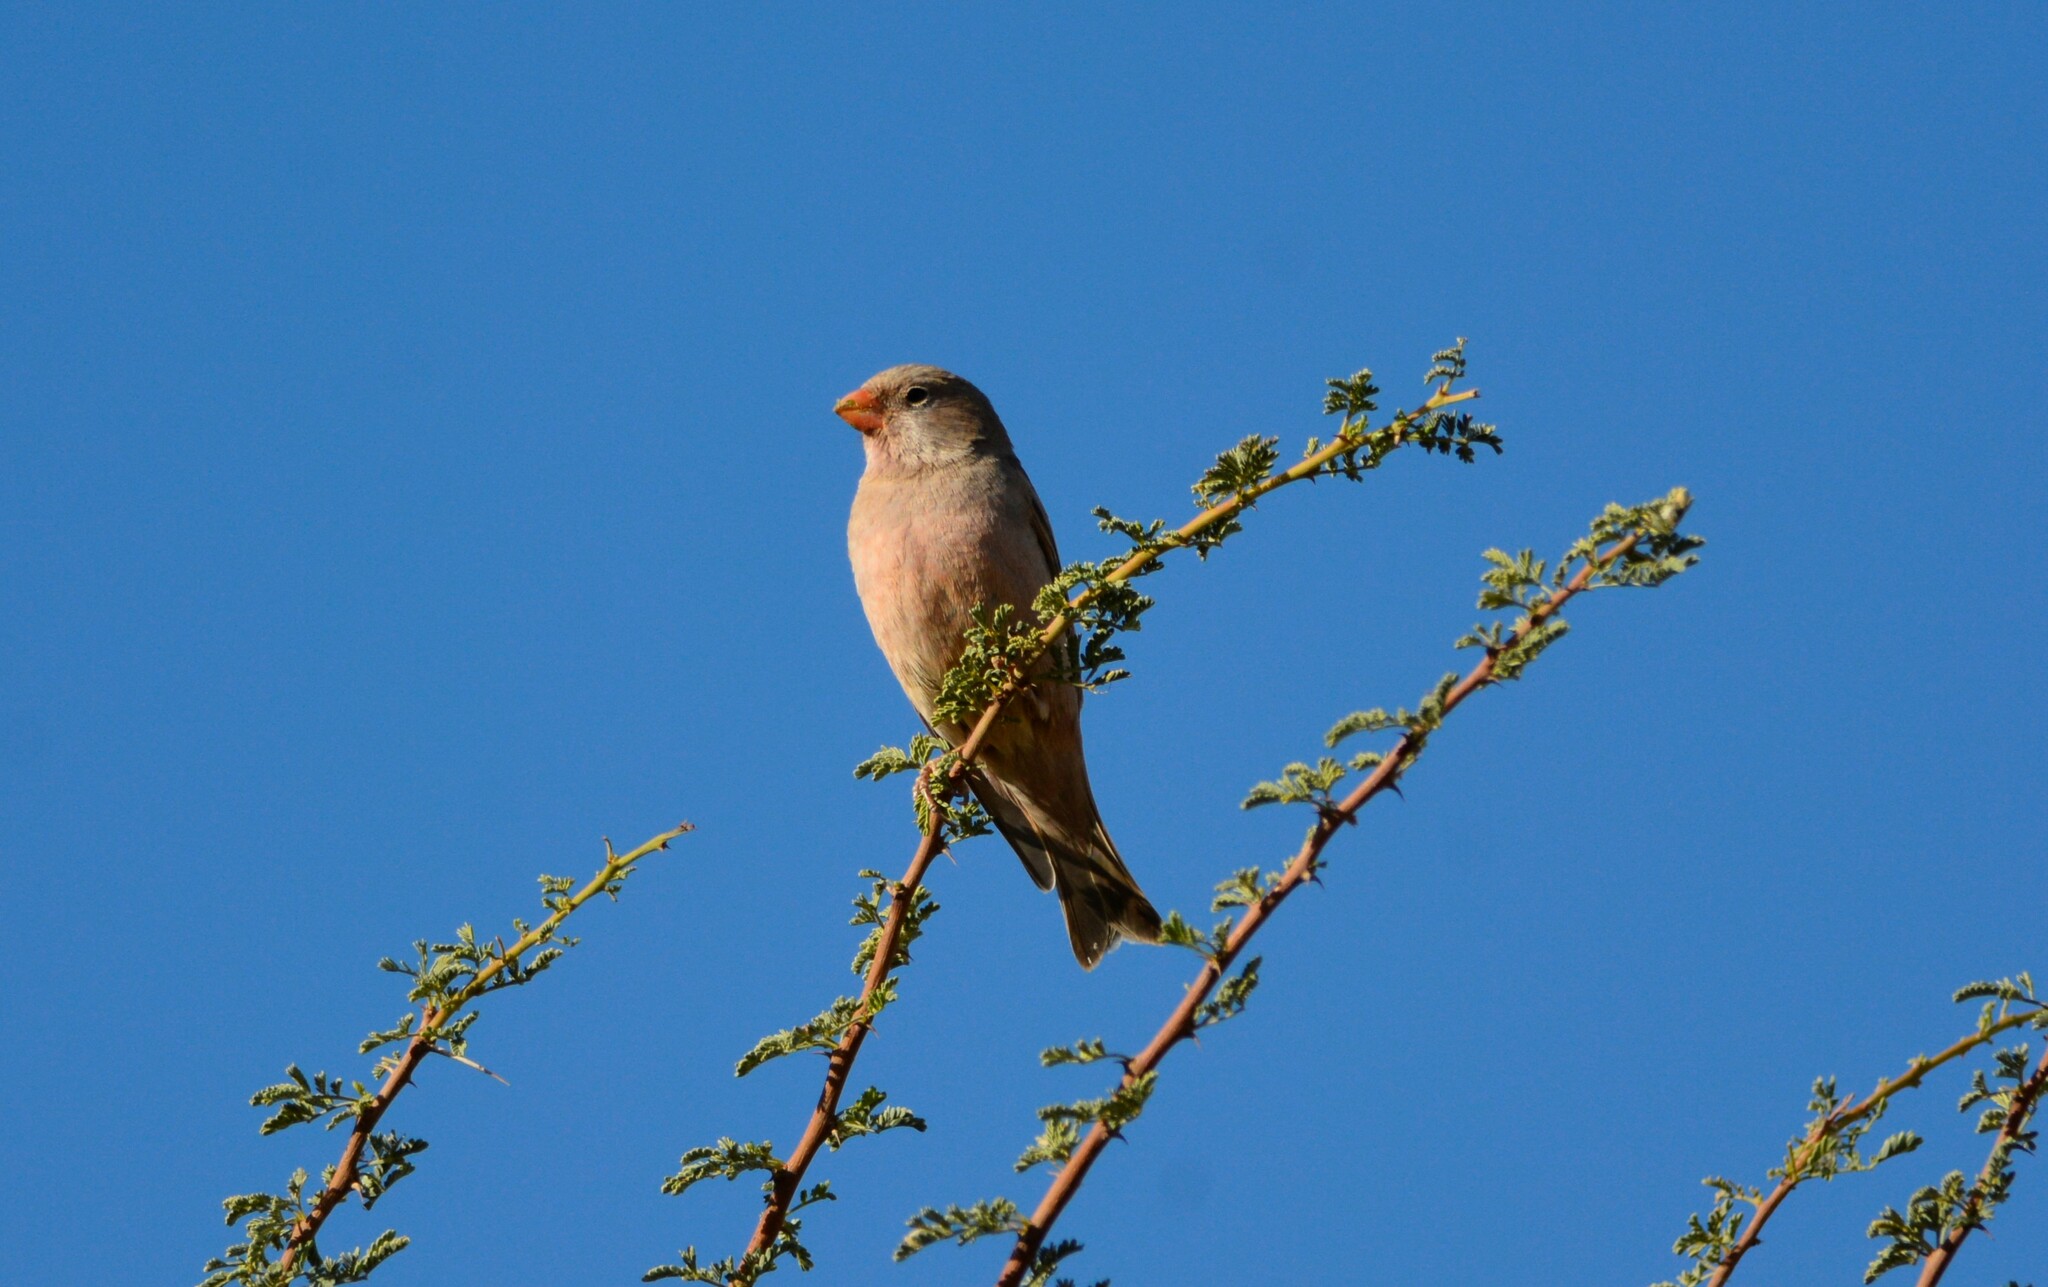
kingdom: Animalia
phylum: Chordata
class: Aves
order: Passeriformes
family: Fringillidae
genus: Bucanetes
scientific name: Bucanetes githagineus
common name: Trumpeter finch
